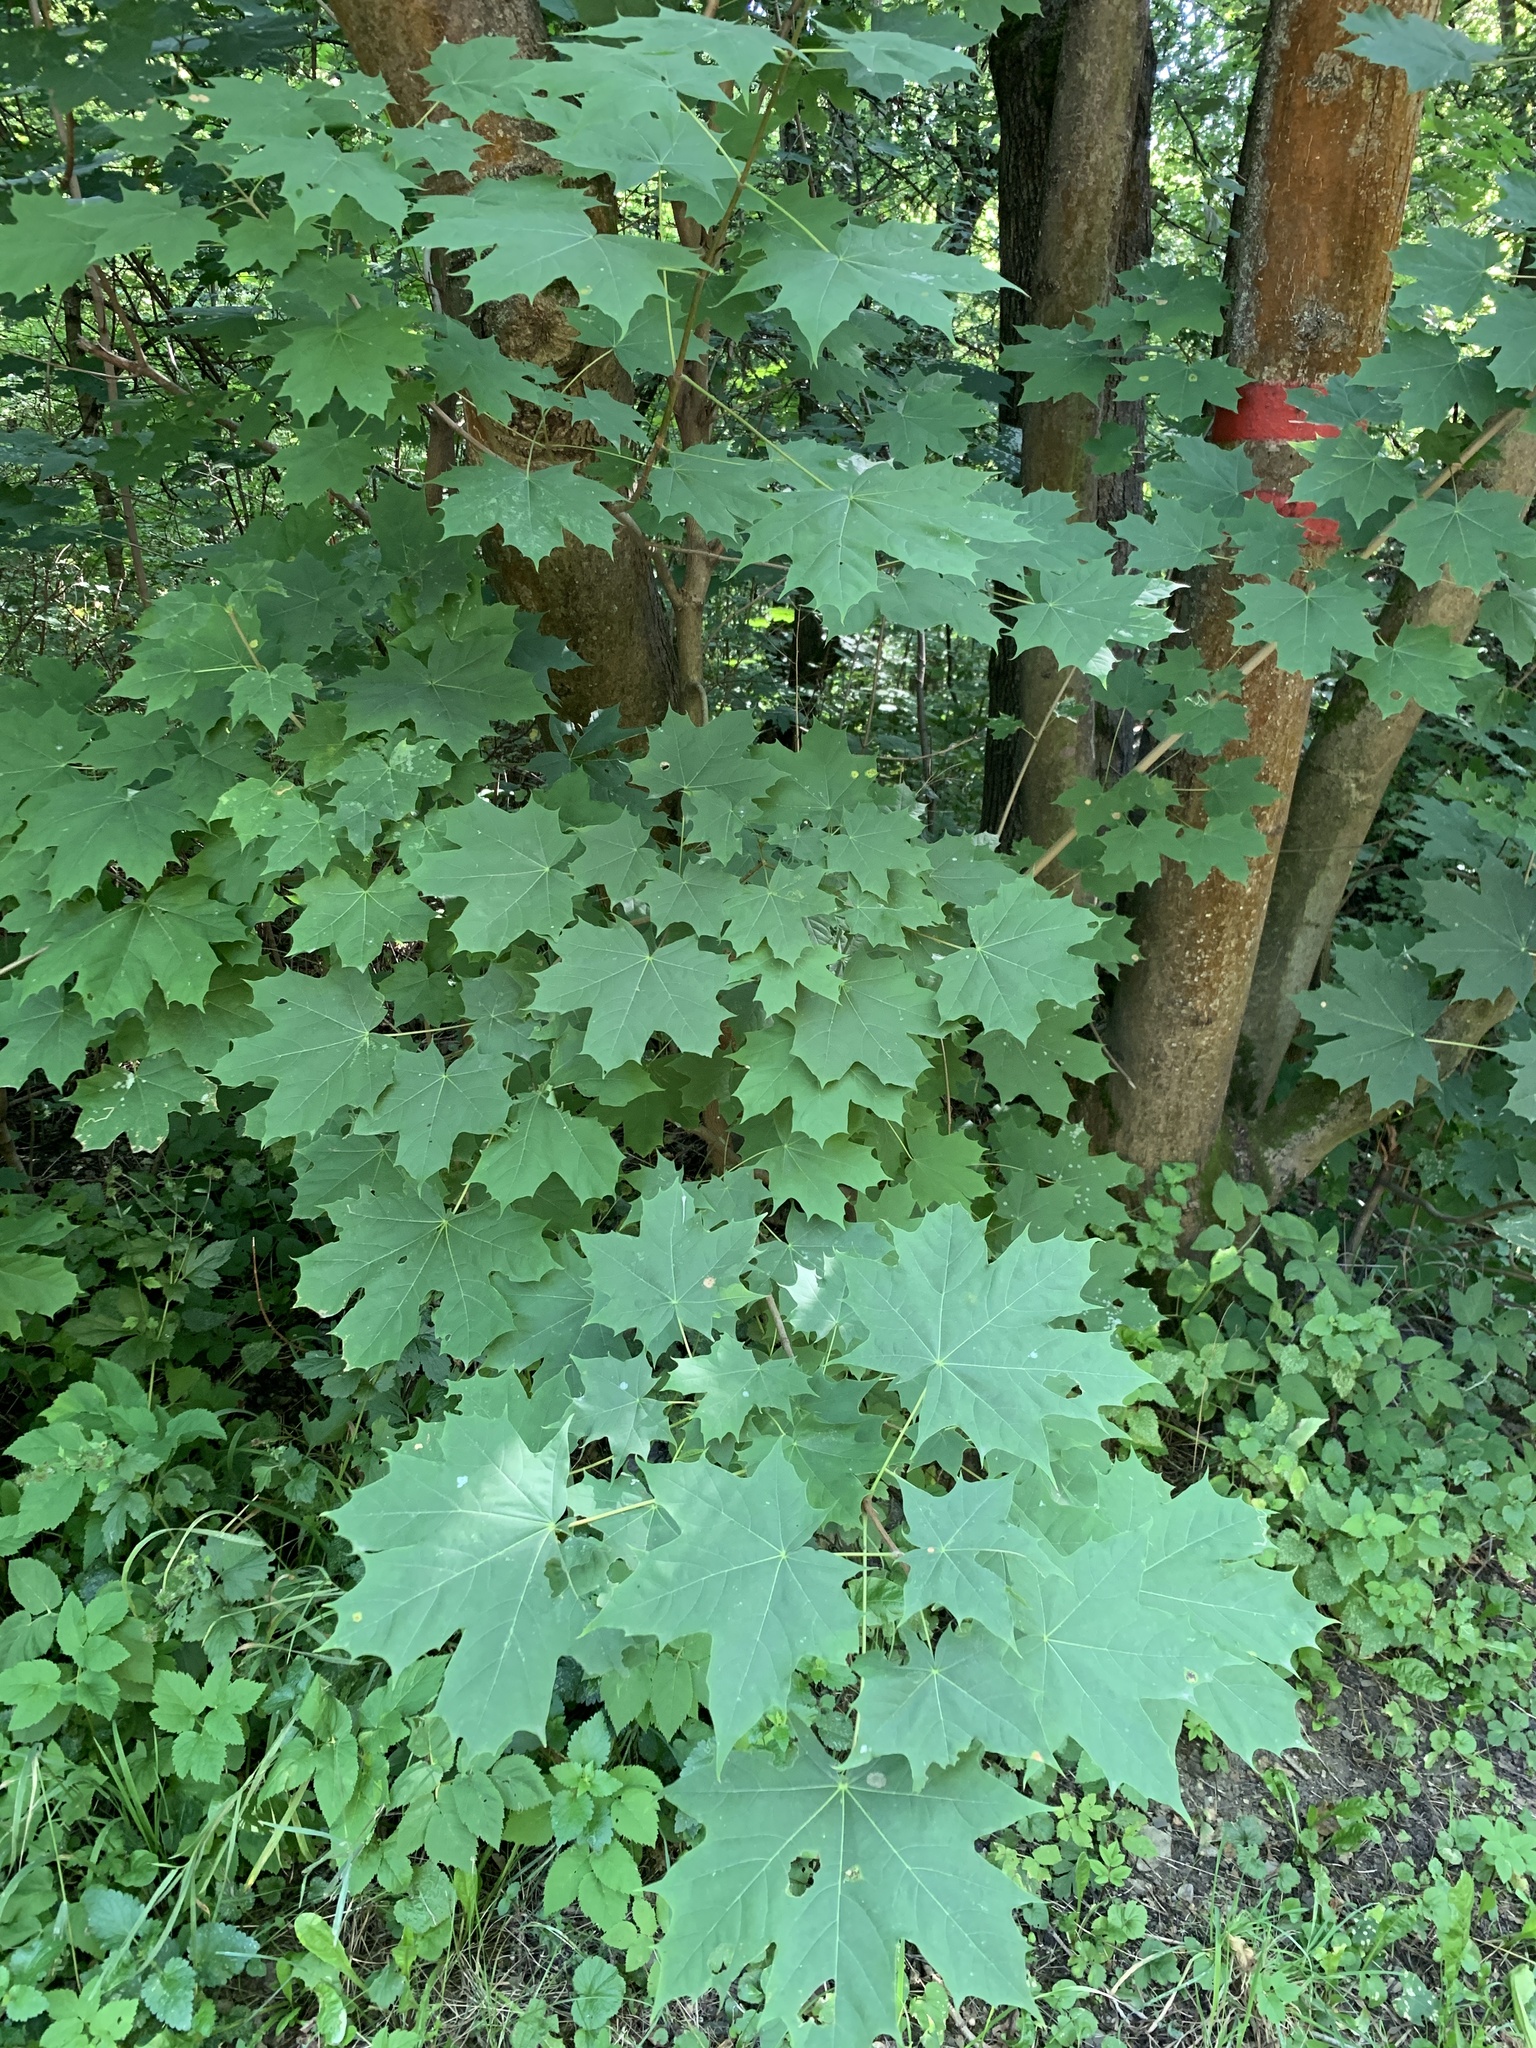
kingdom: Plantae
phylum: Tracheophyta
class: Magnoliopsida
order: Sapindales
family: Sapindaceae
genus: Acer
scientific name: Acer platanoides
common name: Norway maple
